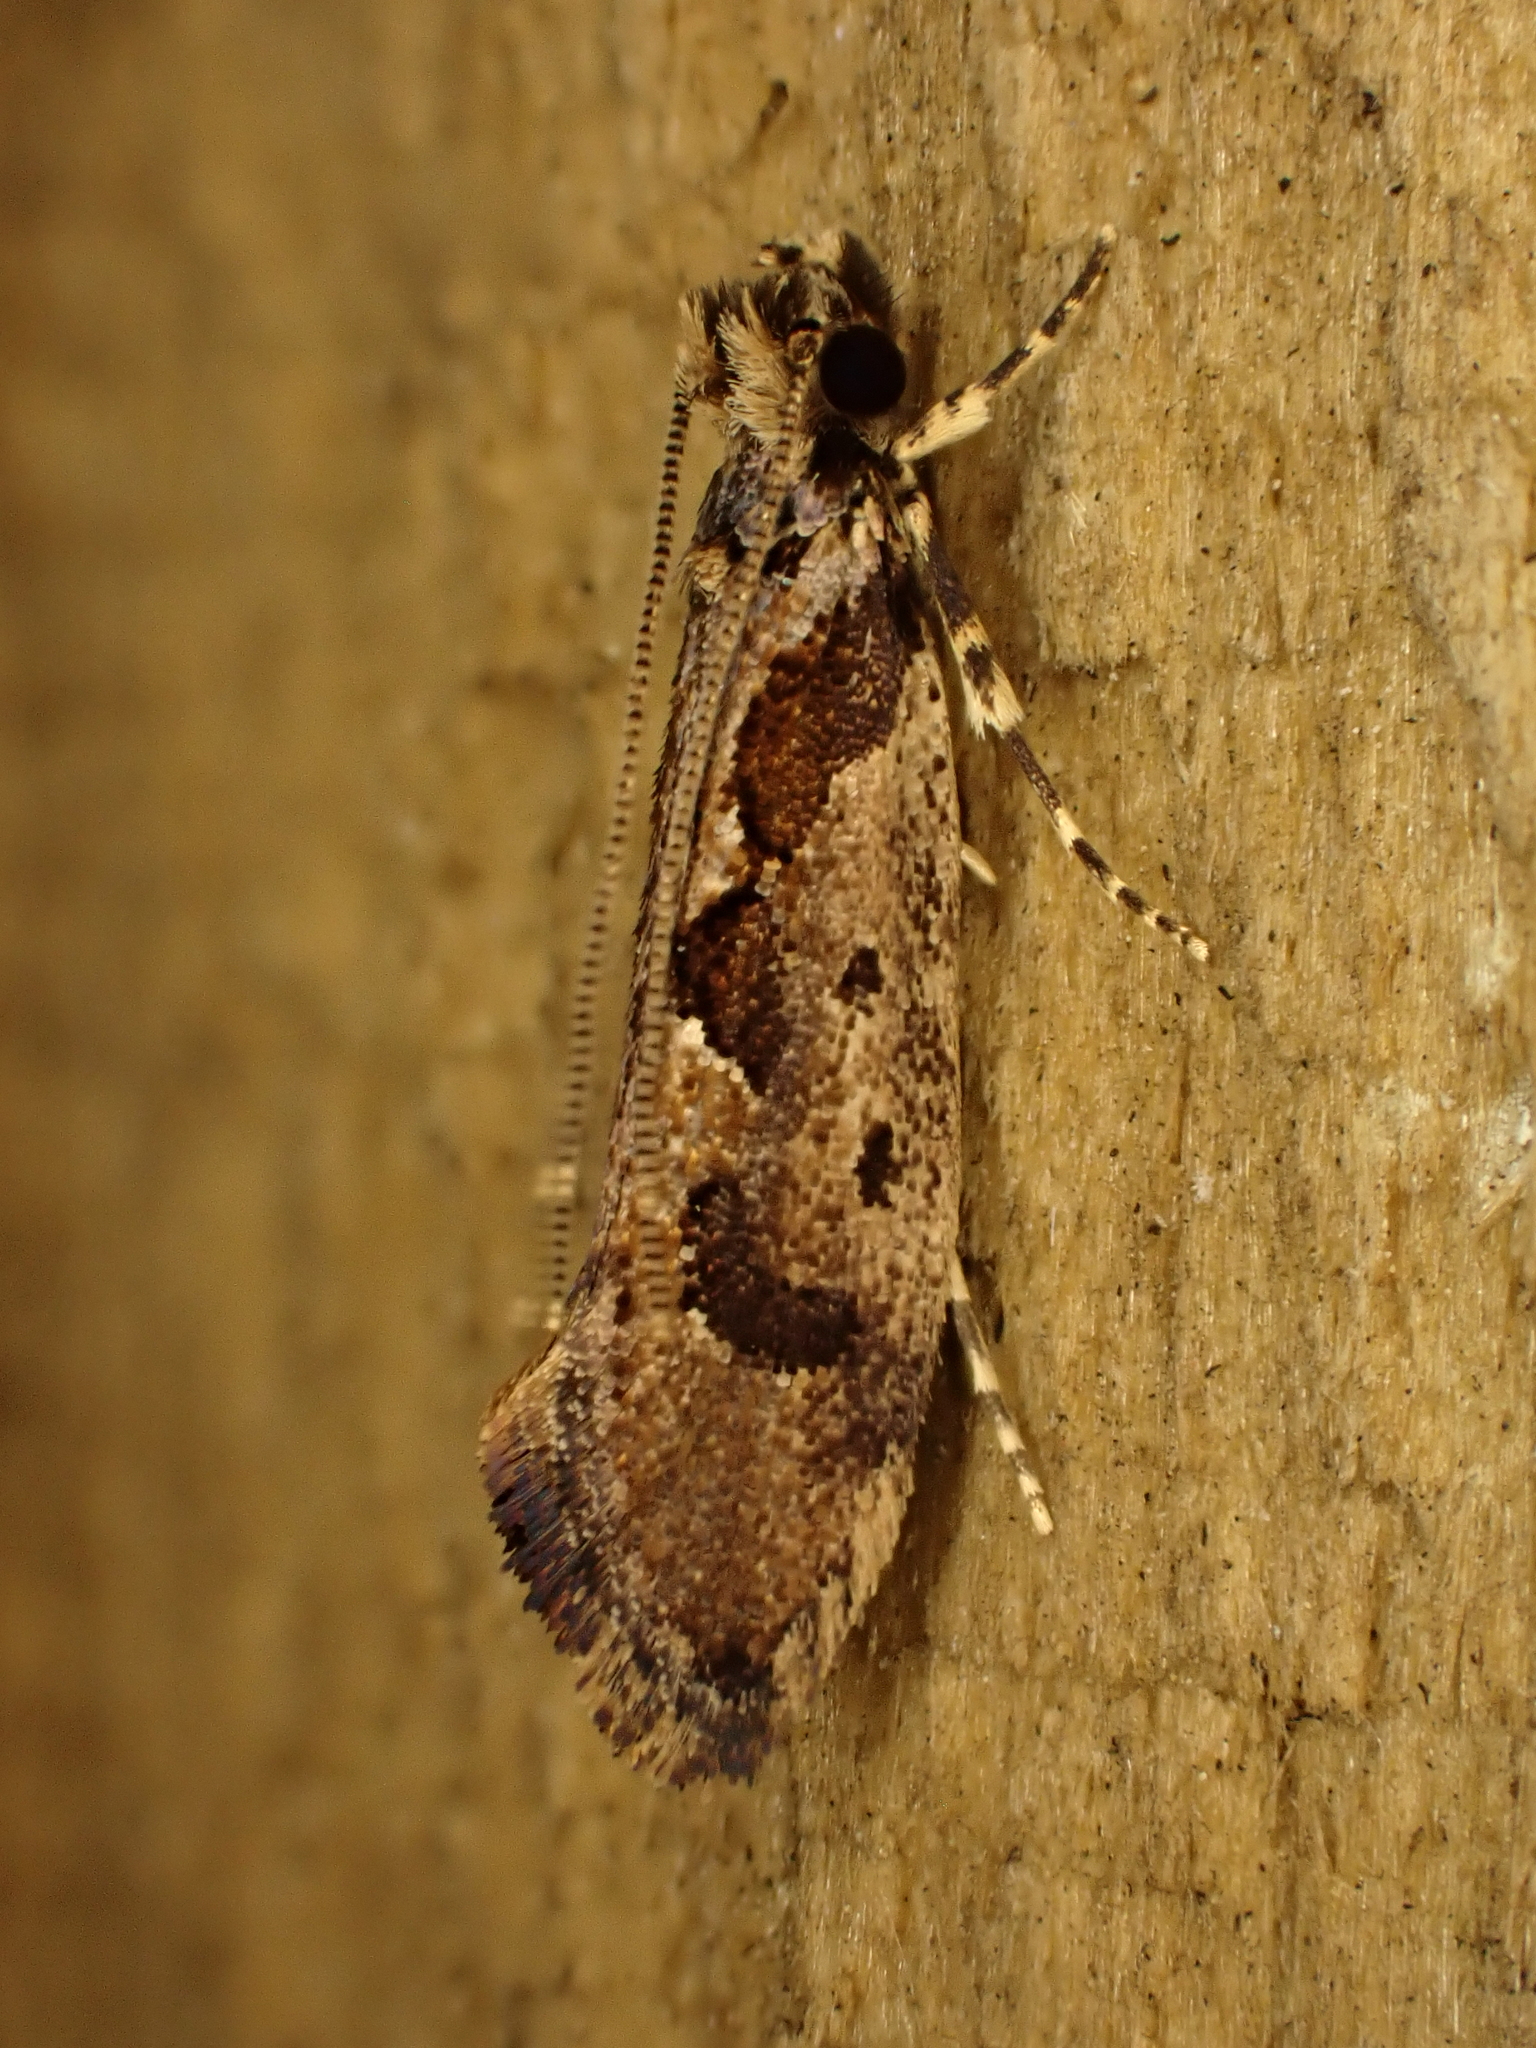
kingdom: Animalia
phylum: Arthropoda
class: Insecta
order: Lepidoptera
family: Tineidae
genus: Erechthias
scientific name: Erechthias capnitis
